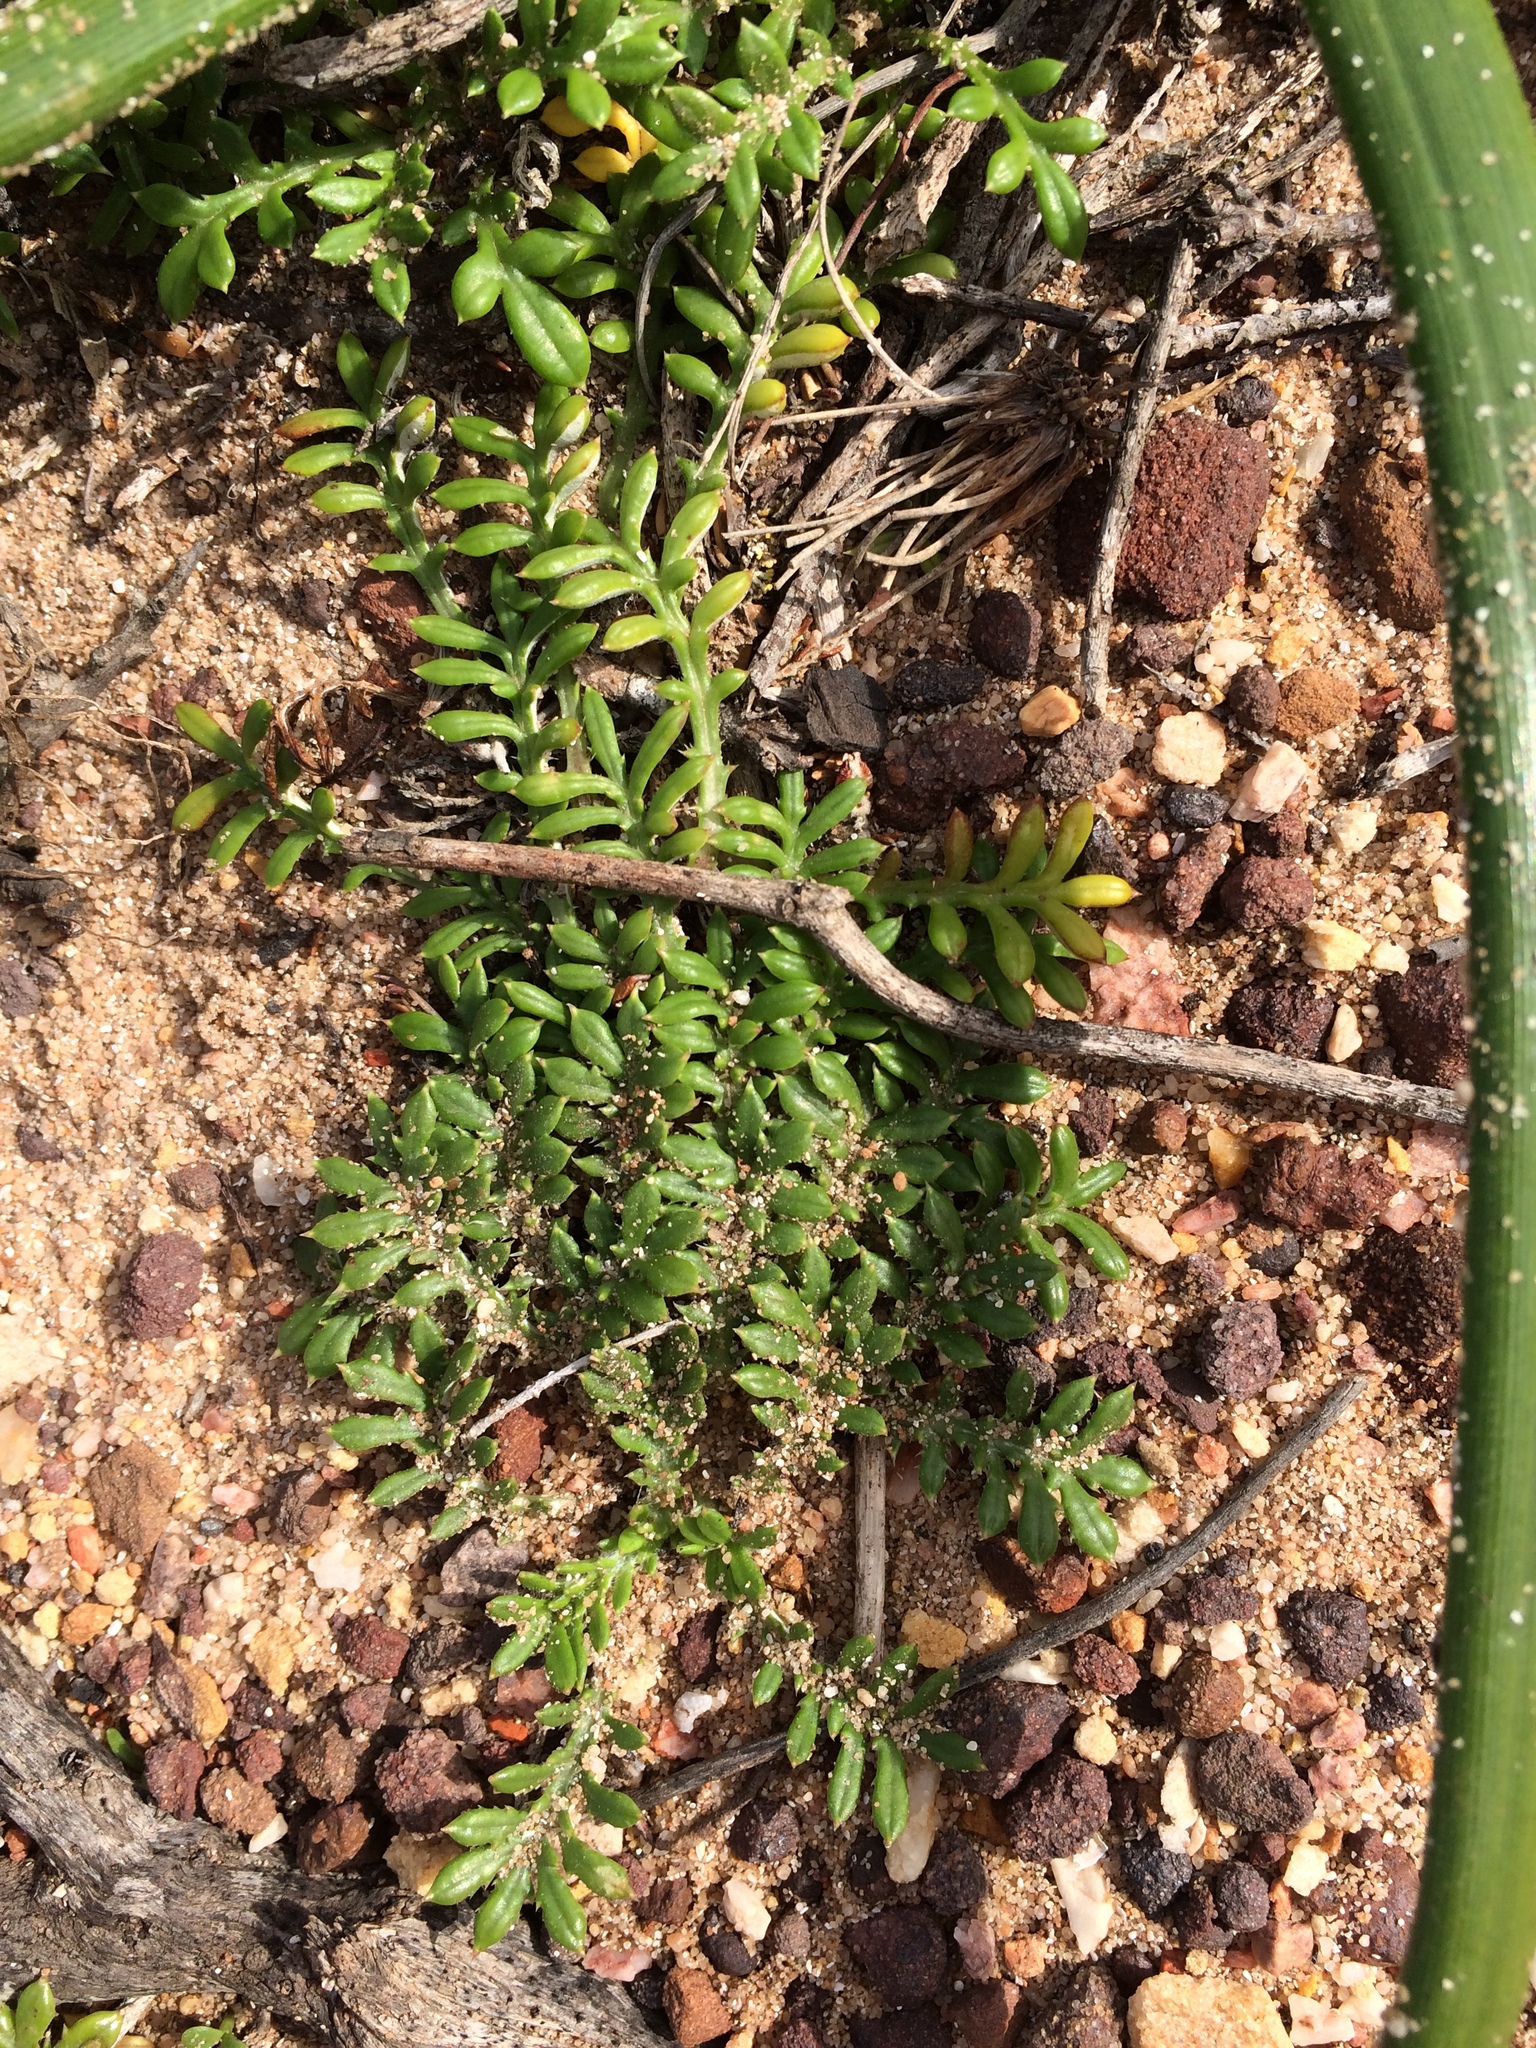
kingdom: Plantae
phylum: Tracheophyta
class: Magnoliopsida
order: Asterales
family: Asteraceae
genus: Gazania
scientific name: Gazania maritima
